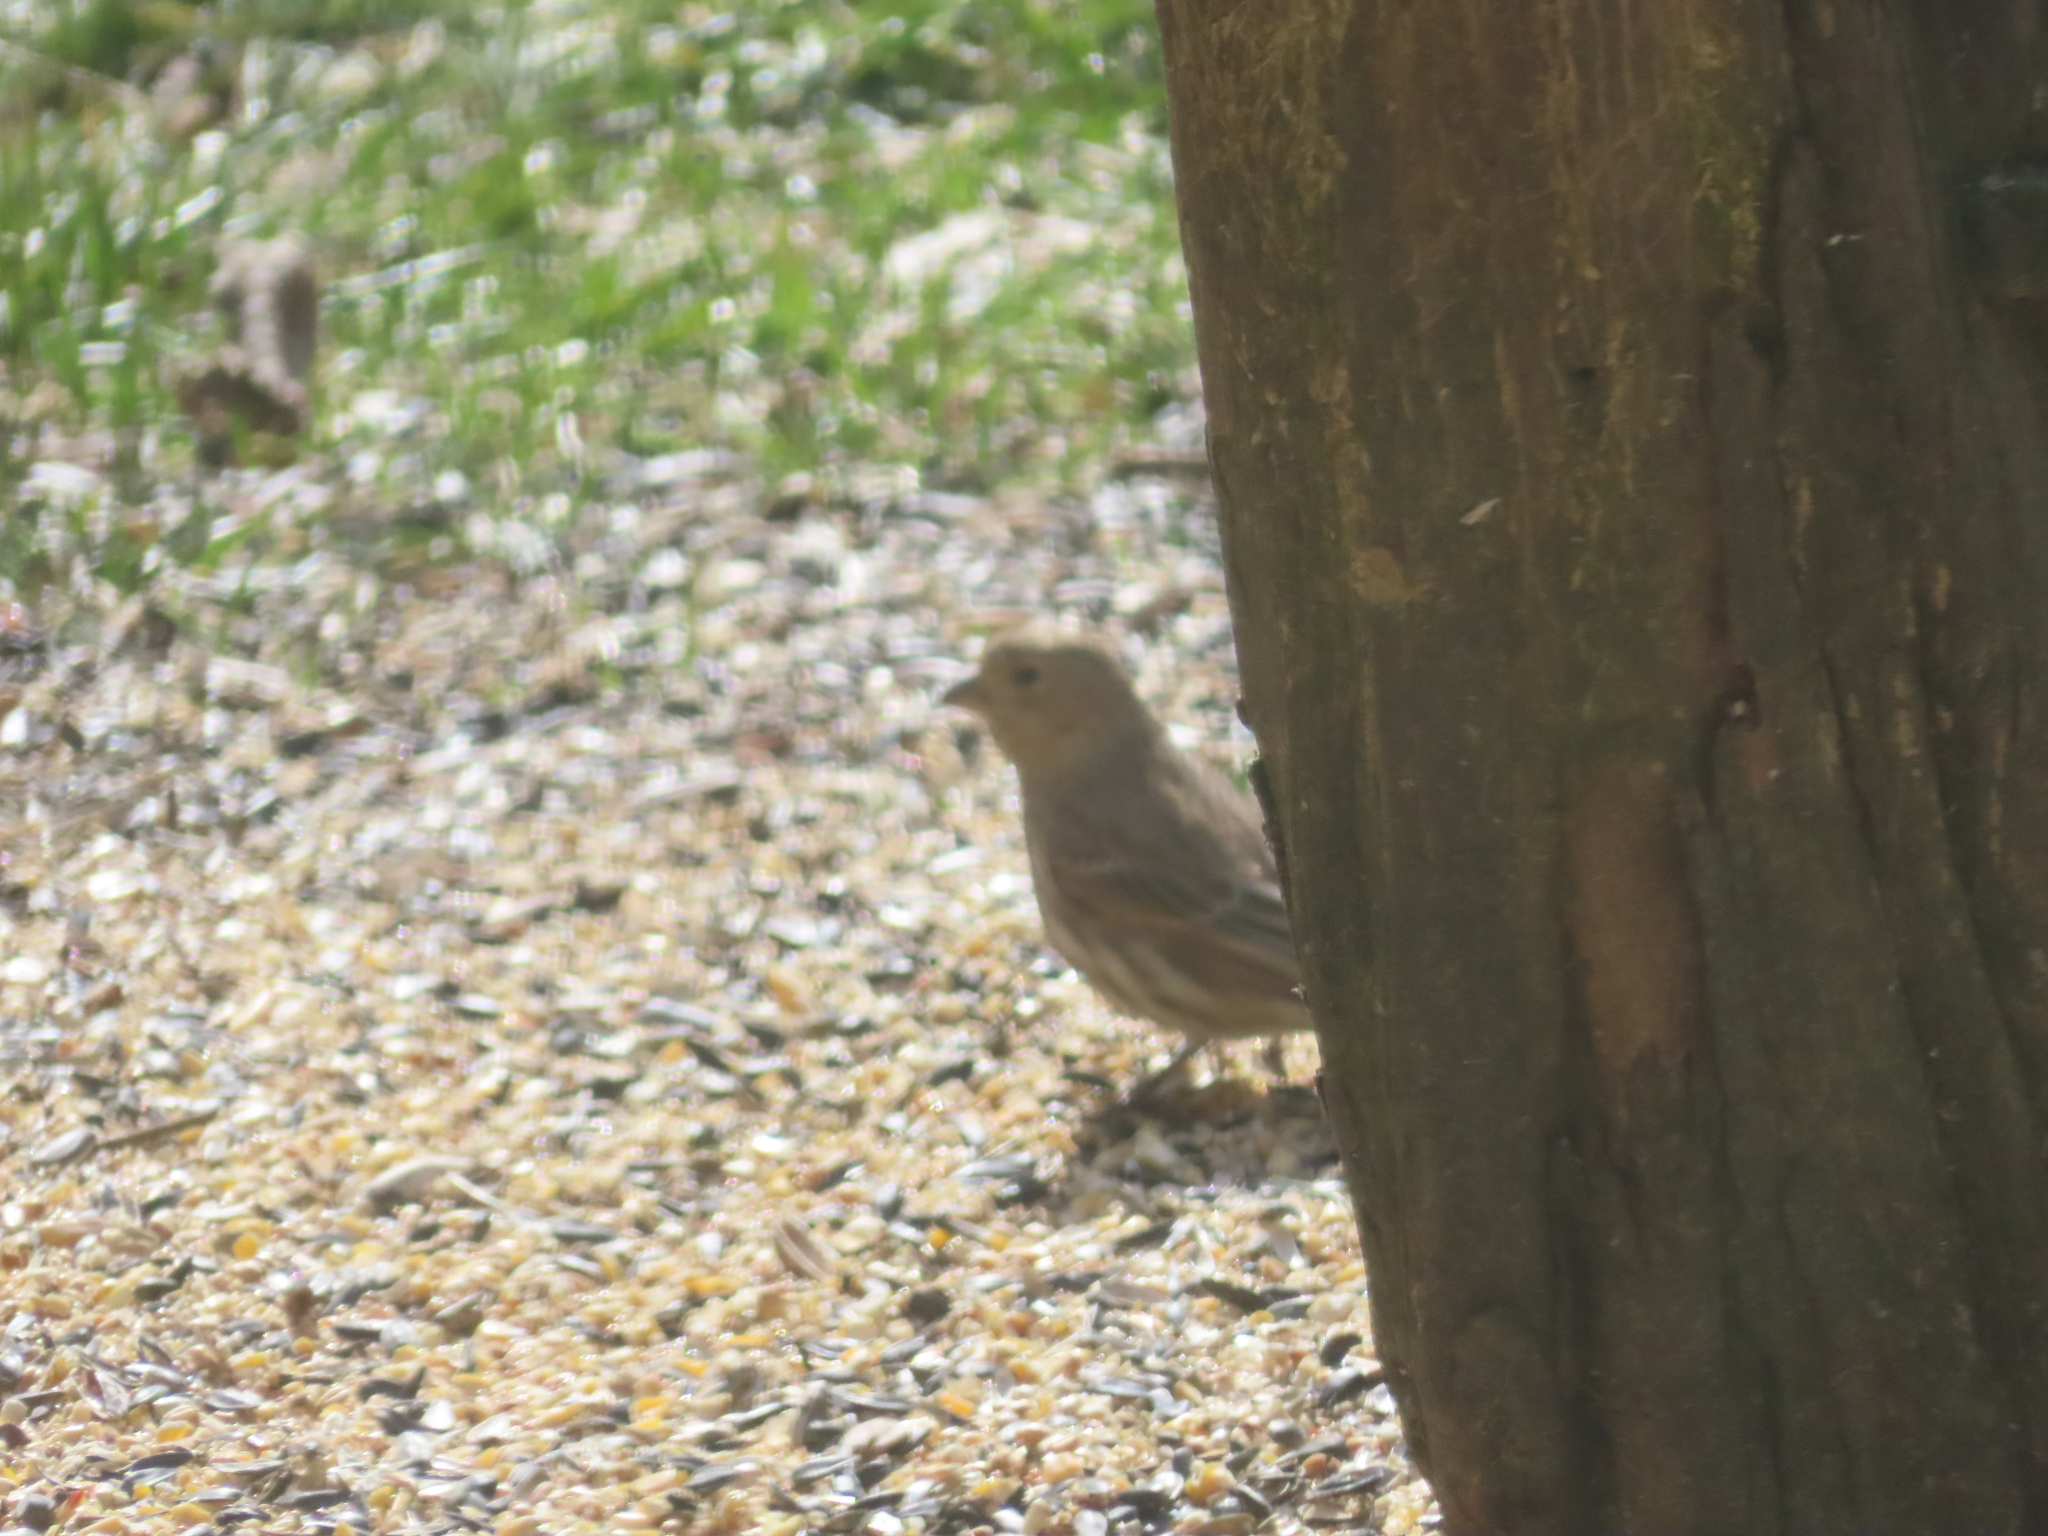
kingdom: Animalia
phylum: Chordata
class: Aves
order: Passeriformes
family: Fringillidae
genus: Haemorhous
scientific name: Haemorhous mexicanus
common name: House finch
